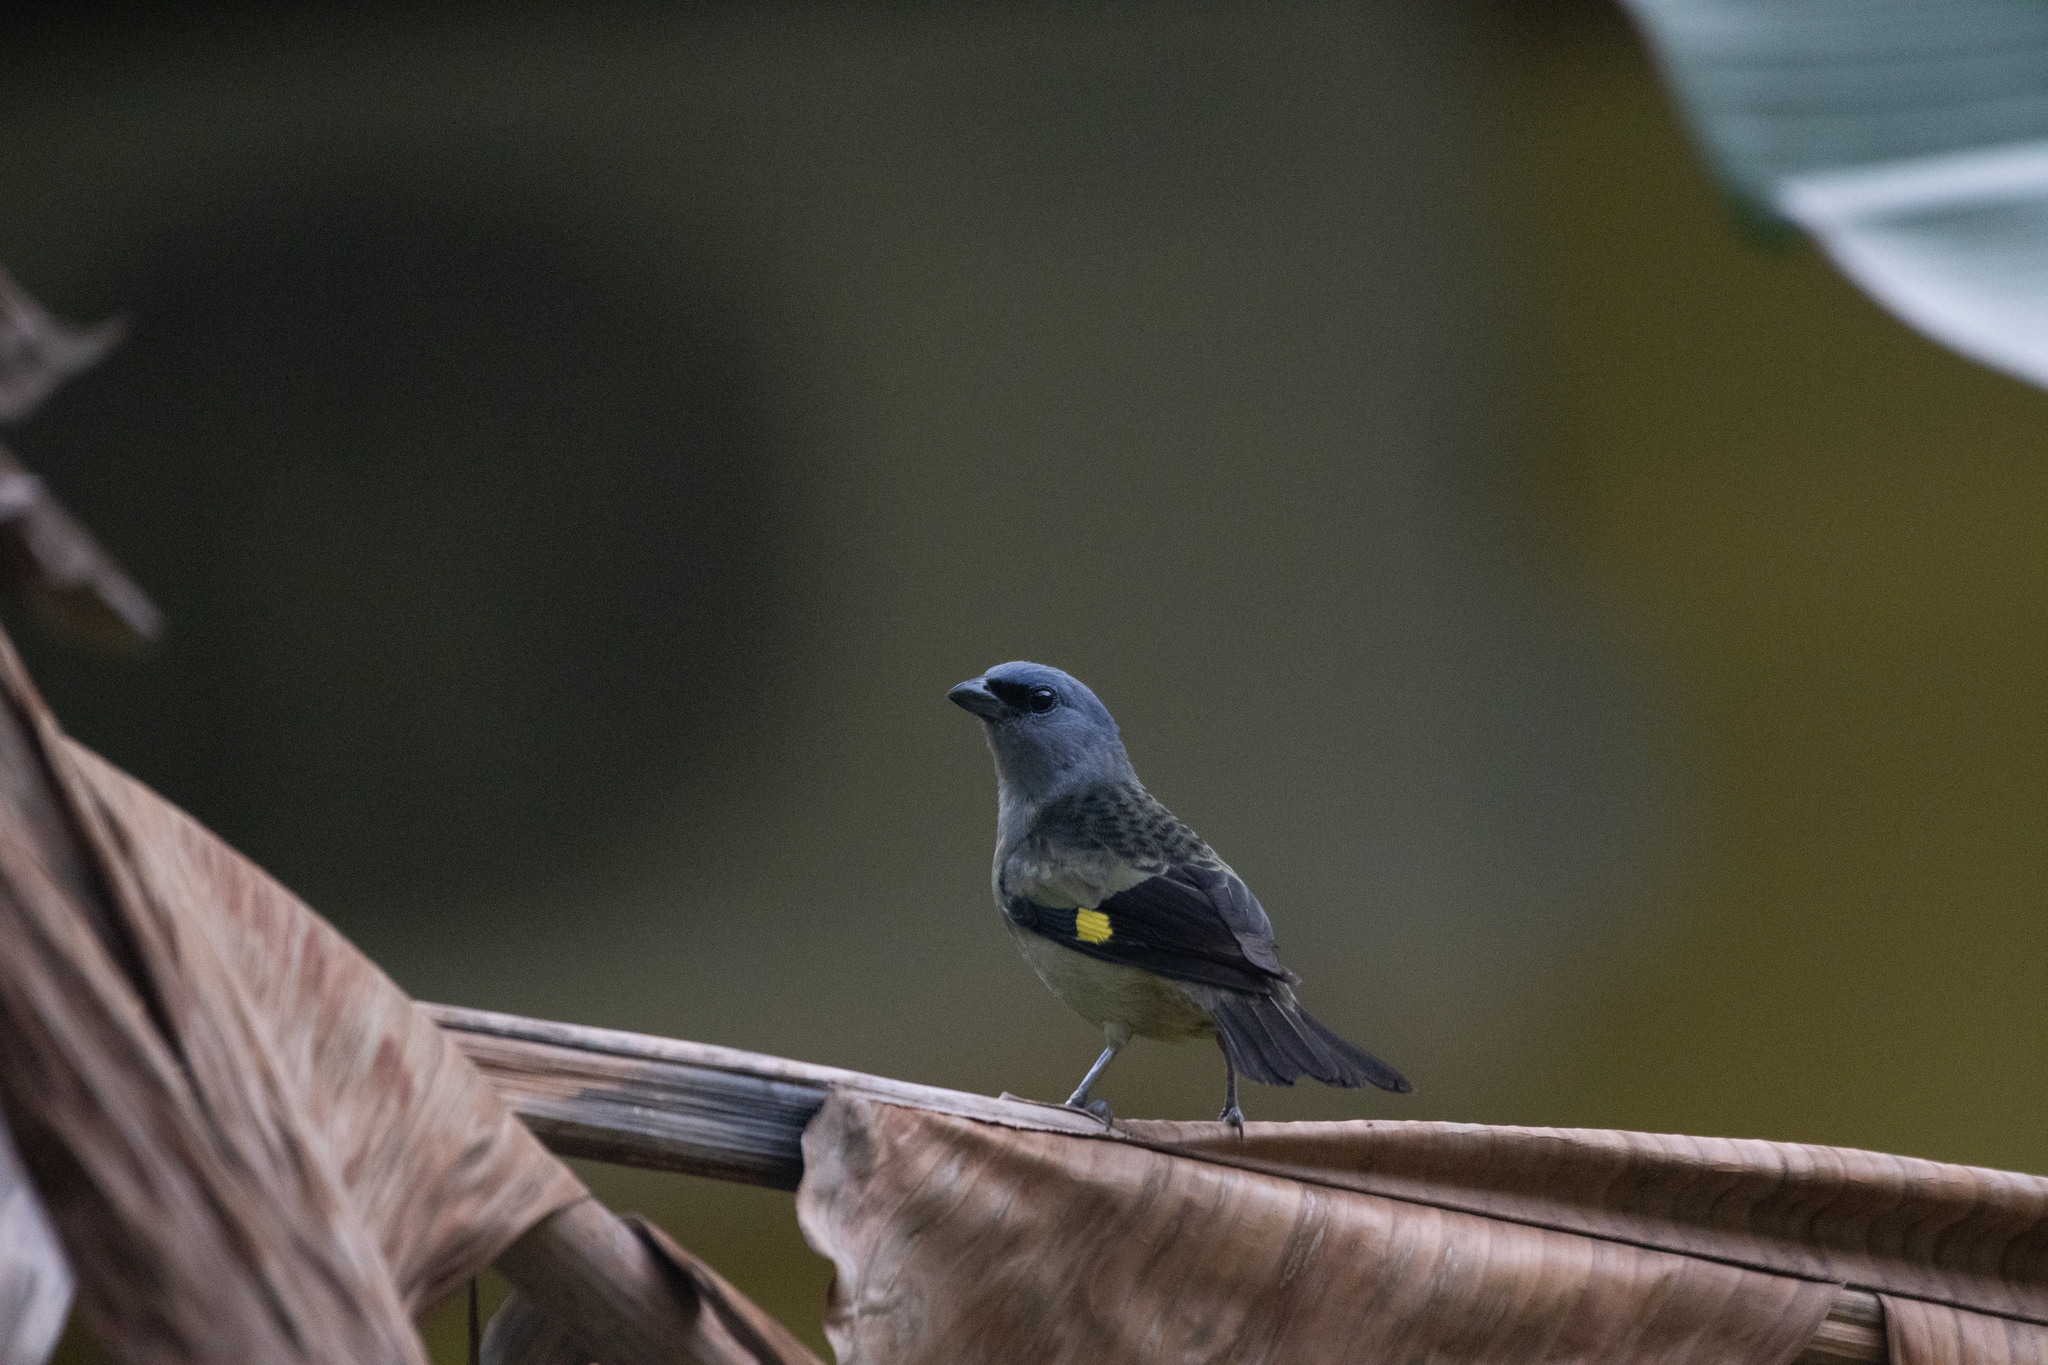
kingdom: Animalia
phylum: Chordata
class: Aves
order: Passeriformes
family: Thraupidae
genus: Thraupis
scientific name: Thraupis abbas
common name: Yellow-winged tanager
